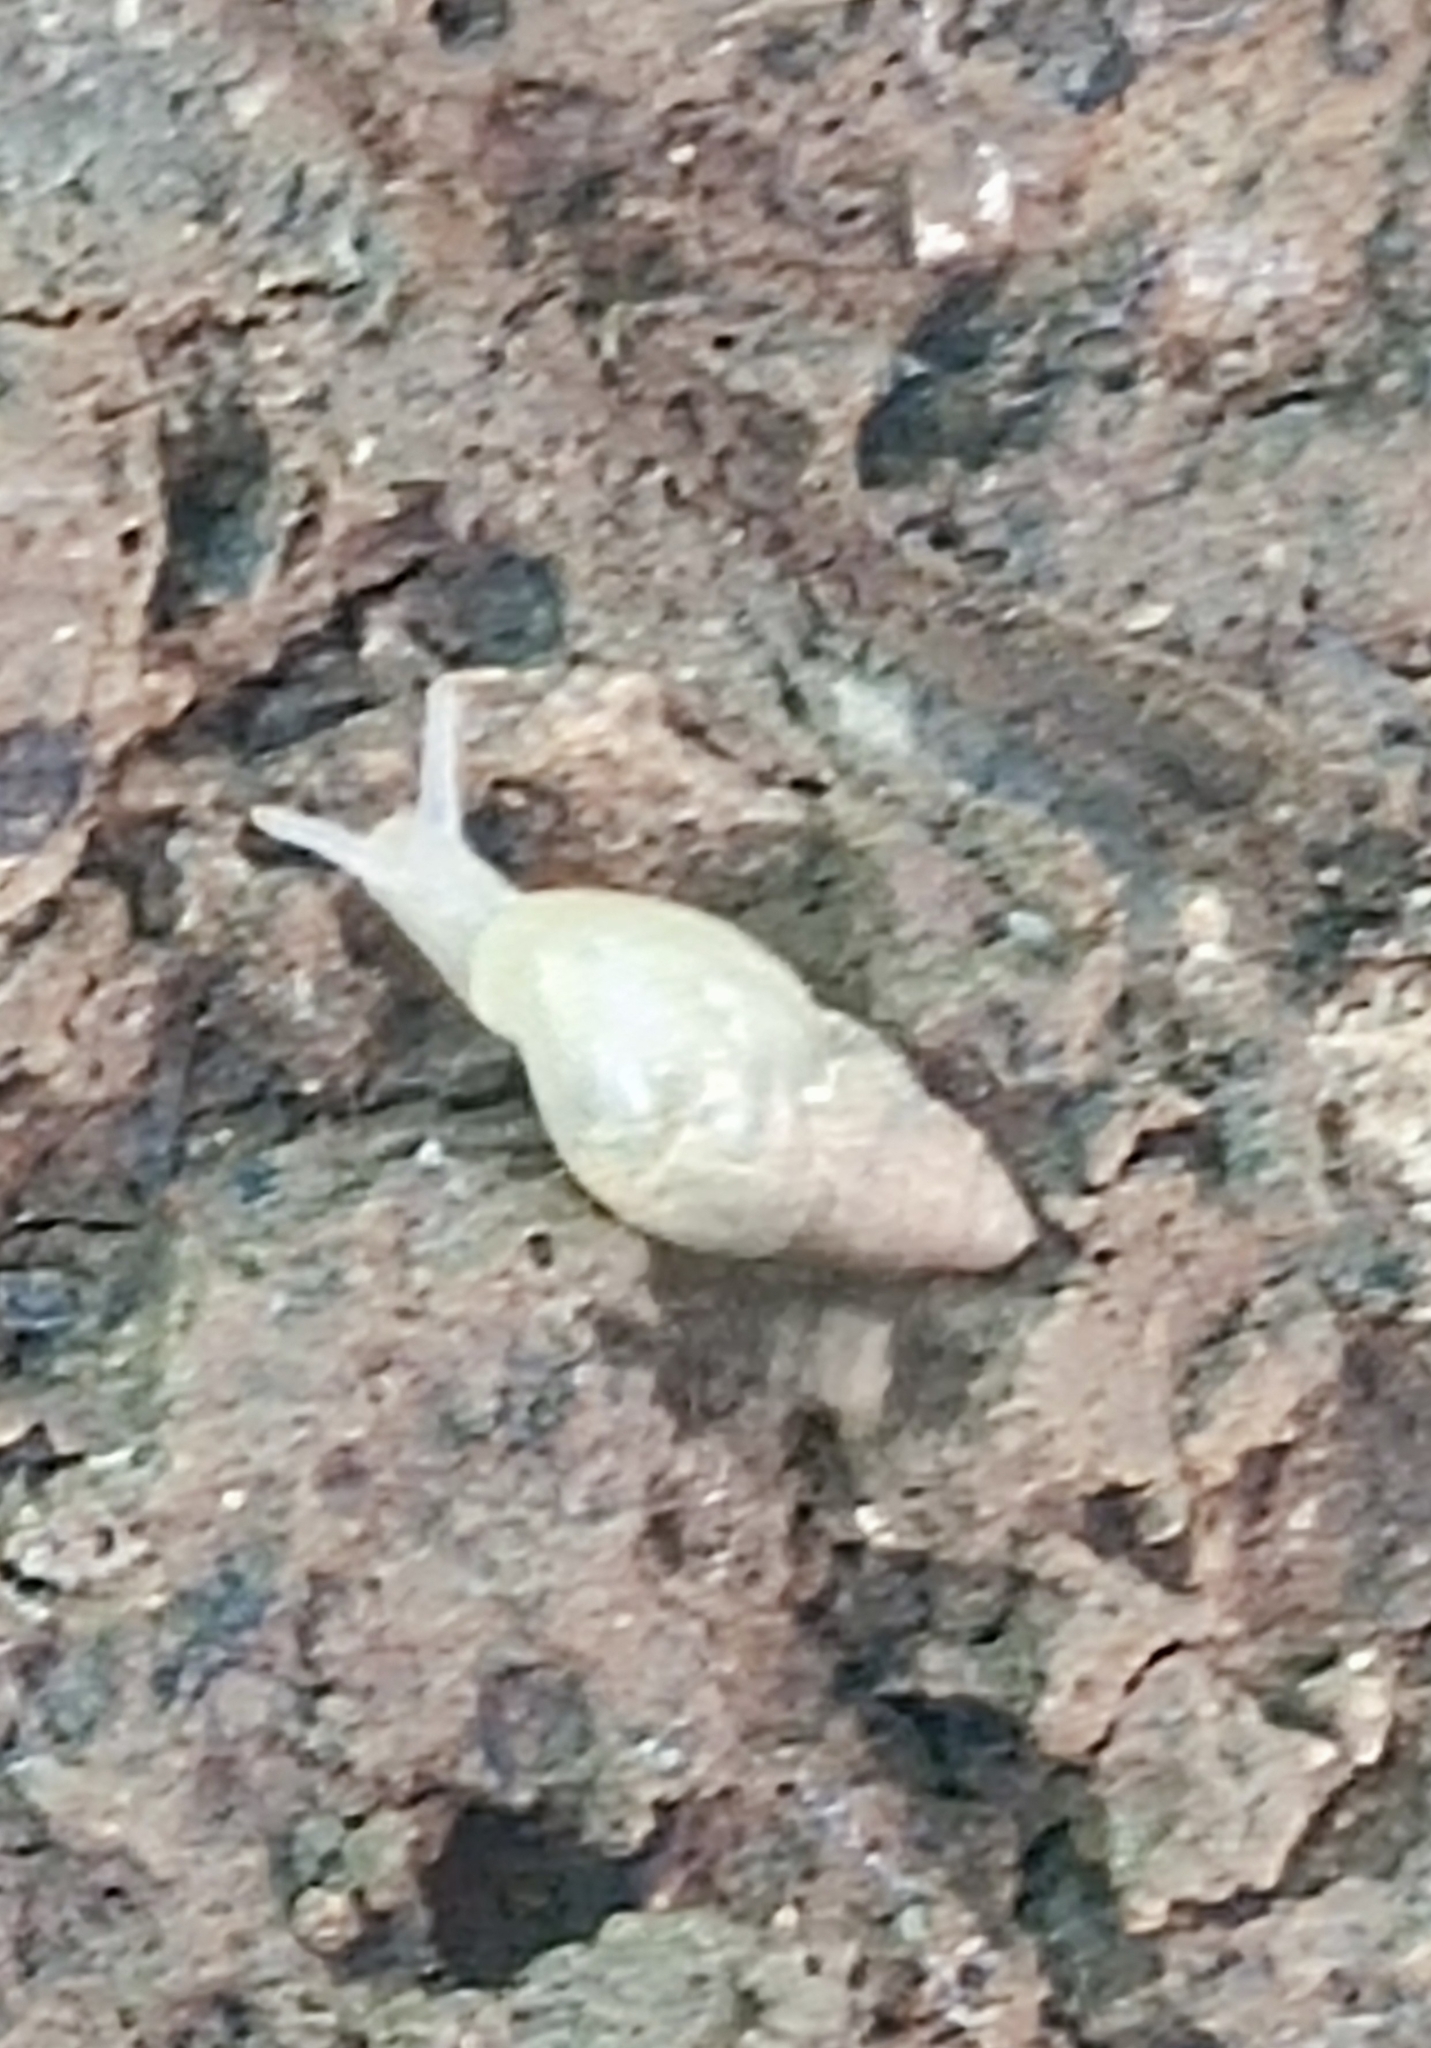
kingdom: Animalia
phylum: Mollusca
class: Gastropoda
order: Stylommatophora
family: Achatinidae
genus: Leptinaria
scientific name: Leptinaria unilamellata
